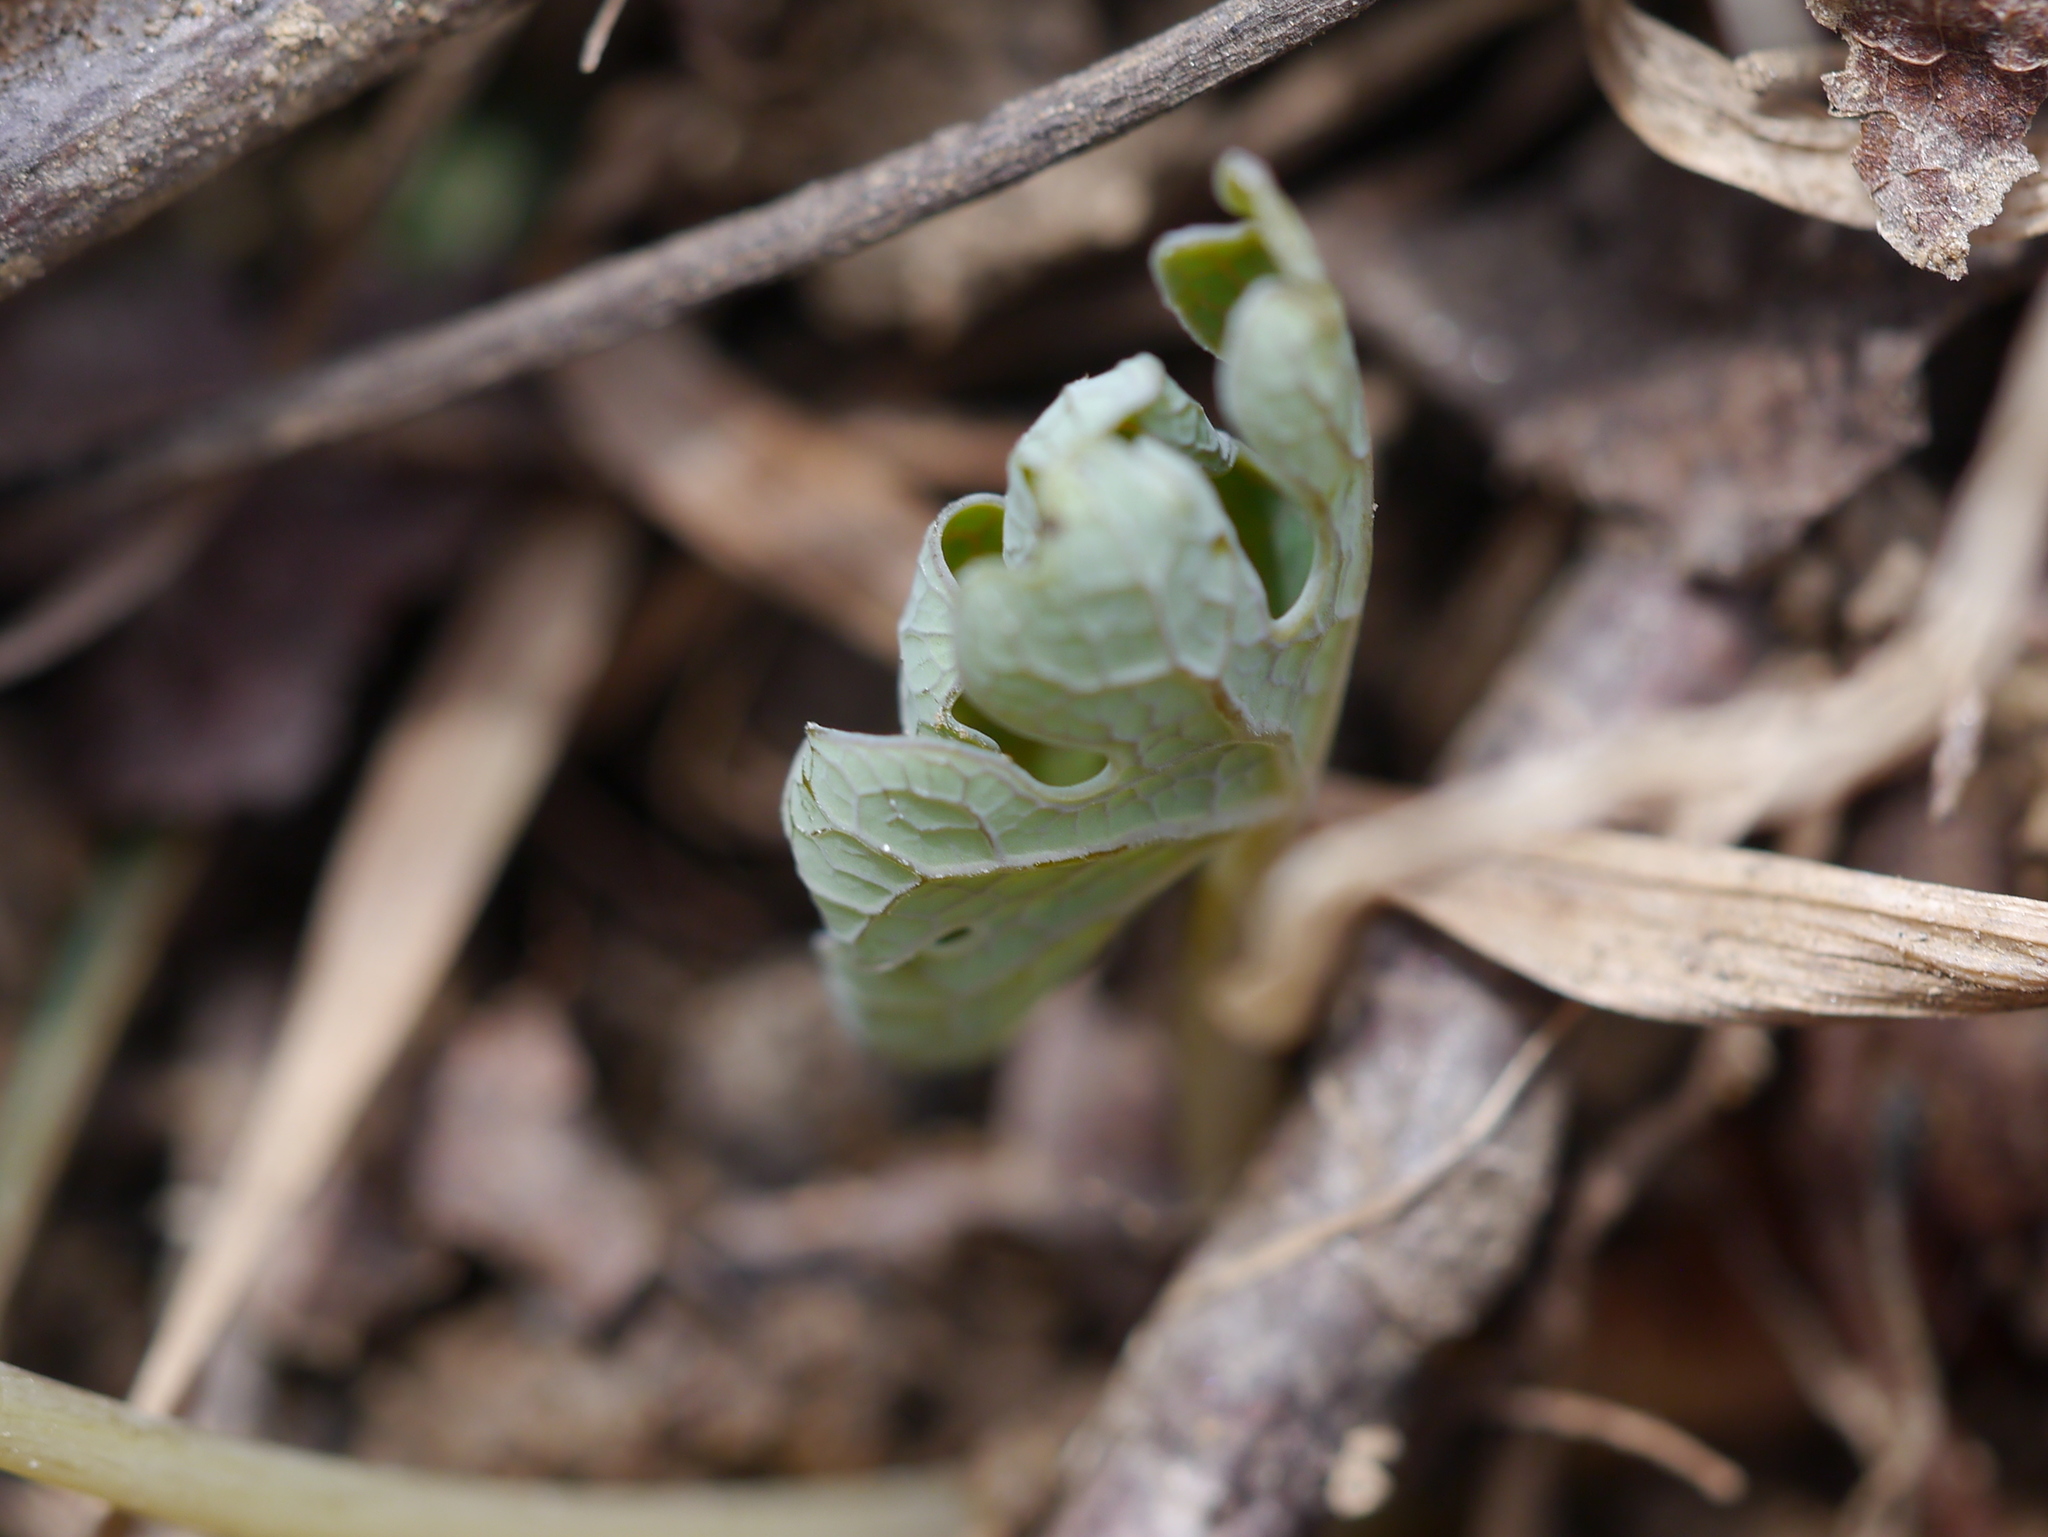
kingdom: Plantae
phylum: Tracheophyta
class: Magnoliopsida
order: Ranunculales
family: Papaveraceae
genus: Sanguinaria
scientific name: Sanguinaria canadensis
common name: Bloodroot
